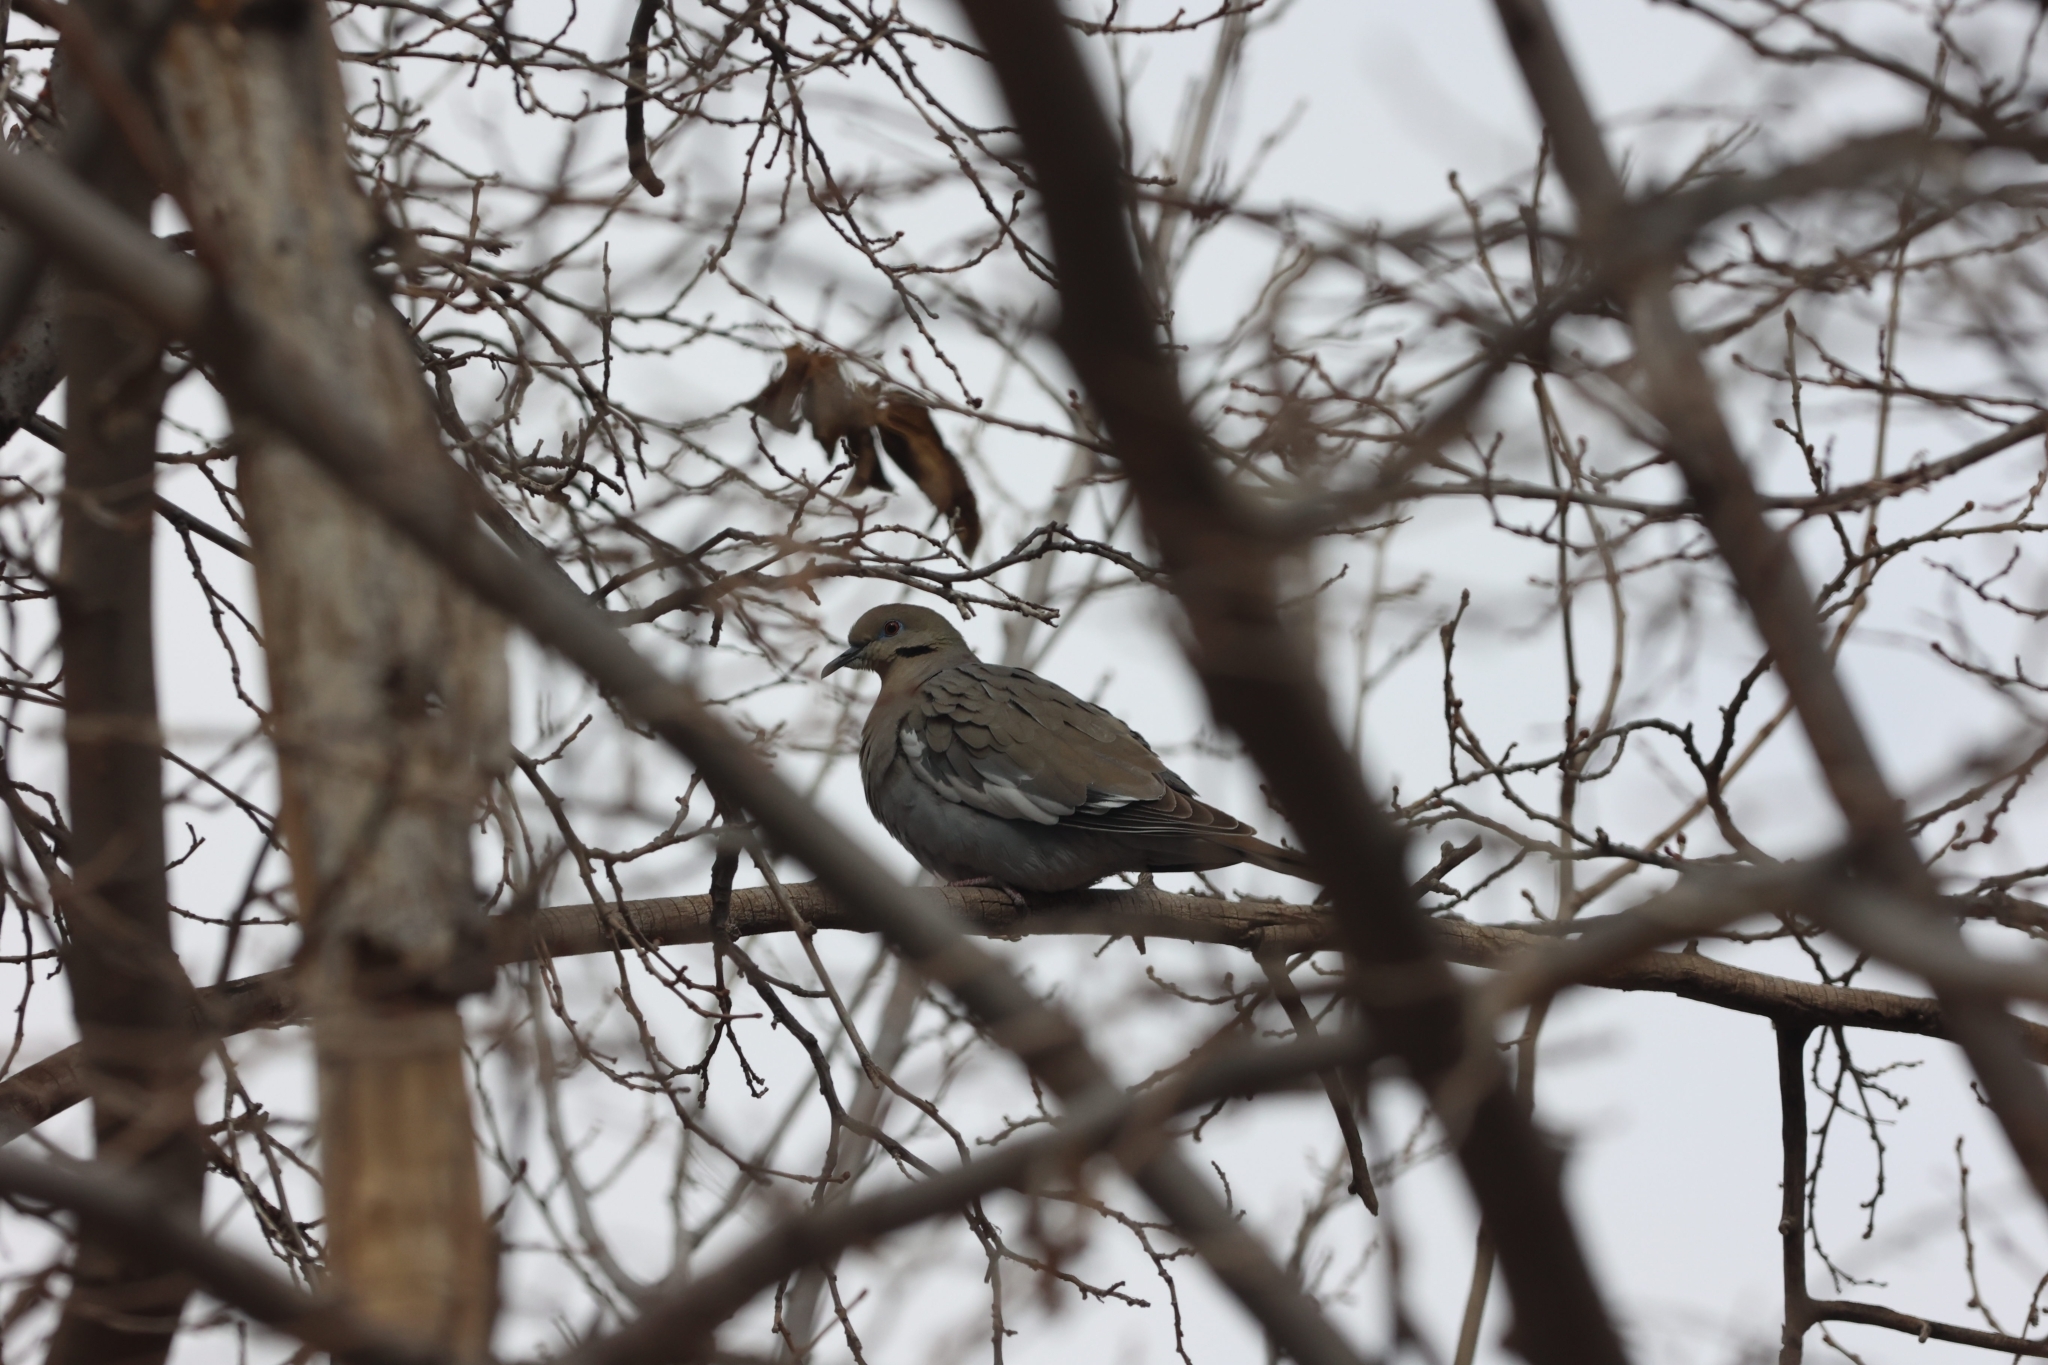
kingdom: Animalia
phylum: Chordata
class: Aves
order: Columbiformes
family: Columbidae
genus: Zenaida
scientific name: Zenaida asiatica
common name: White-winged dove
